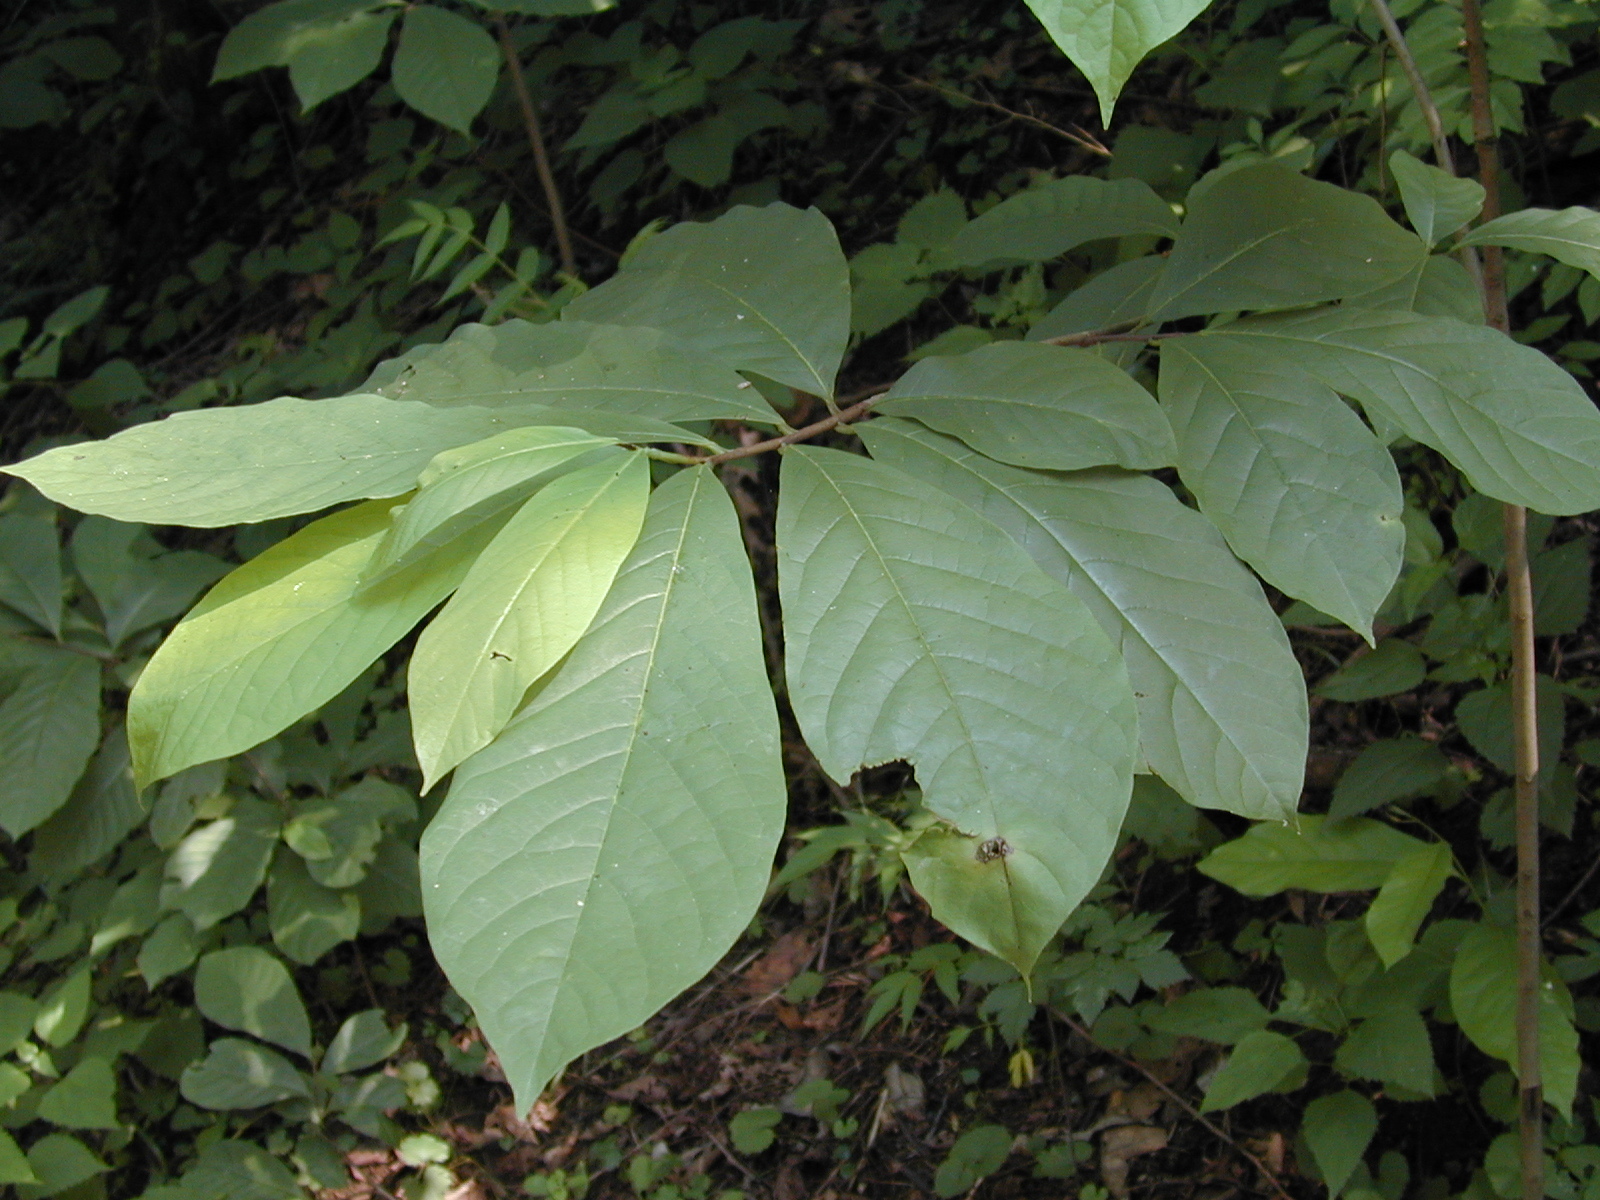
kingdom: Plantae
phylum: Tracheophyta
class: Magnoliopsida
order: Magnoliales
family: Annonaceae
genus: Asimina
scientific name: Asimina triloba
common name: Dog-banana
